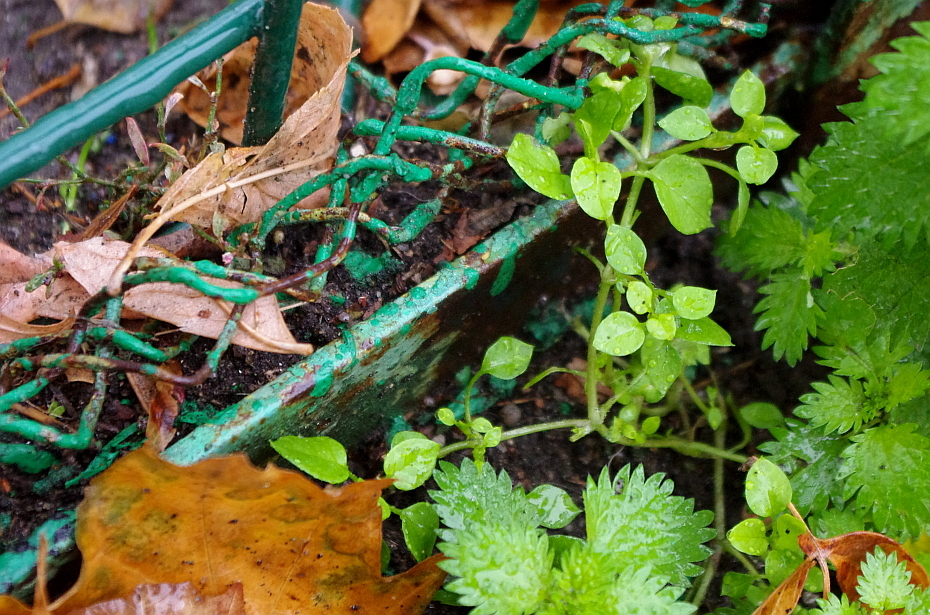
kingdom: Plantae
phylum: Tracheophyta
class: Magnoliopsida
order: Caryophyllales
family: Caryophyllaceae
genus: Stellaria
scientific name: Stellaria media
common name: Common chickweed
